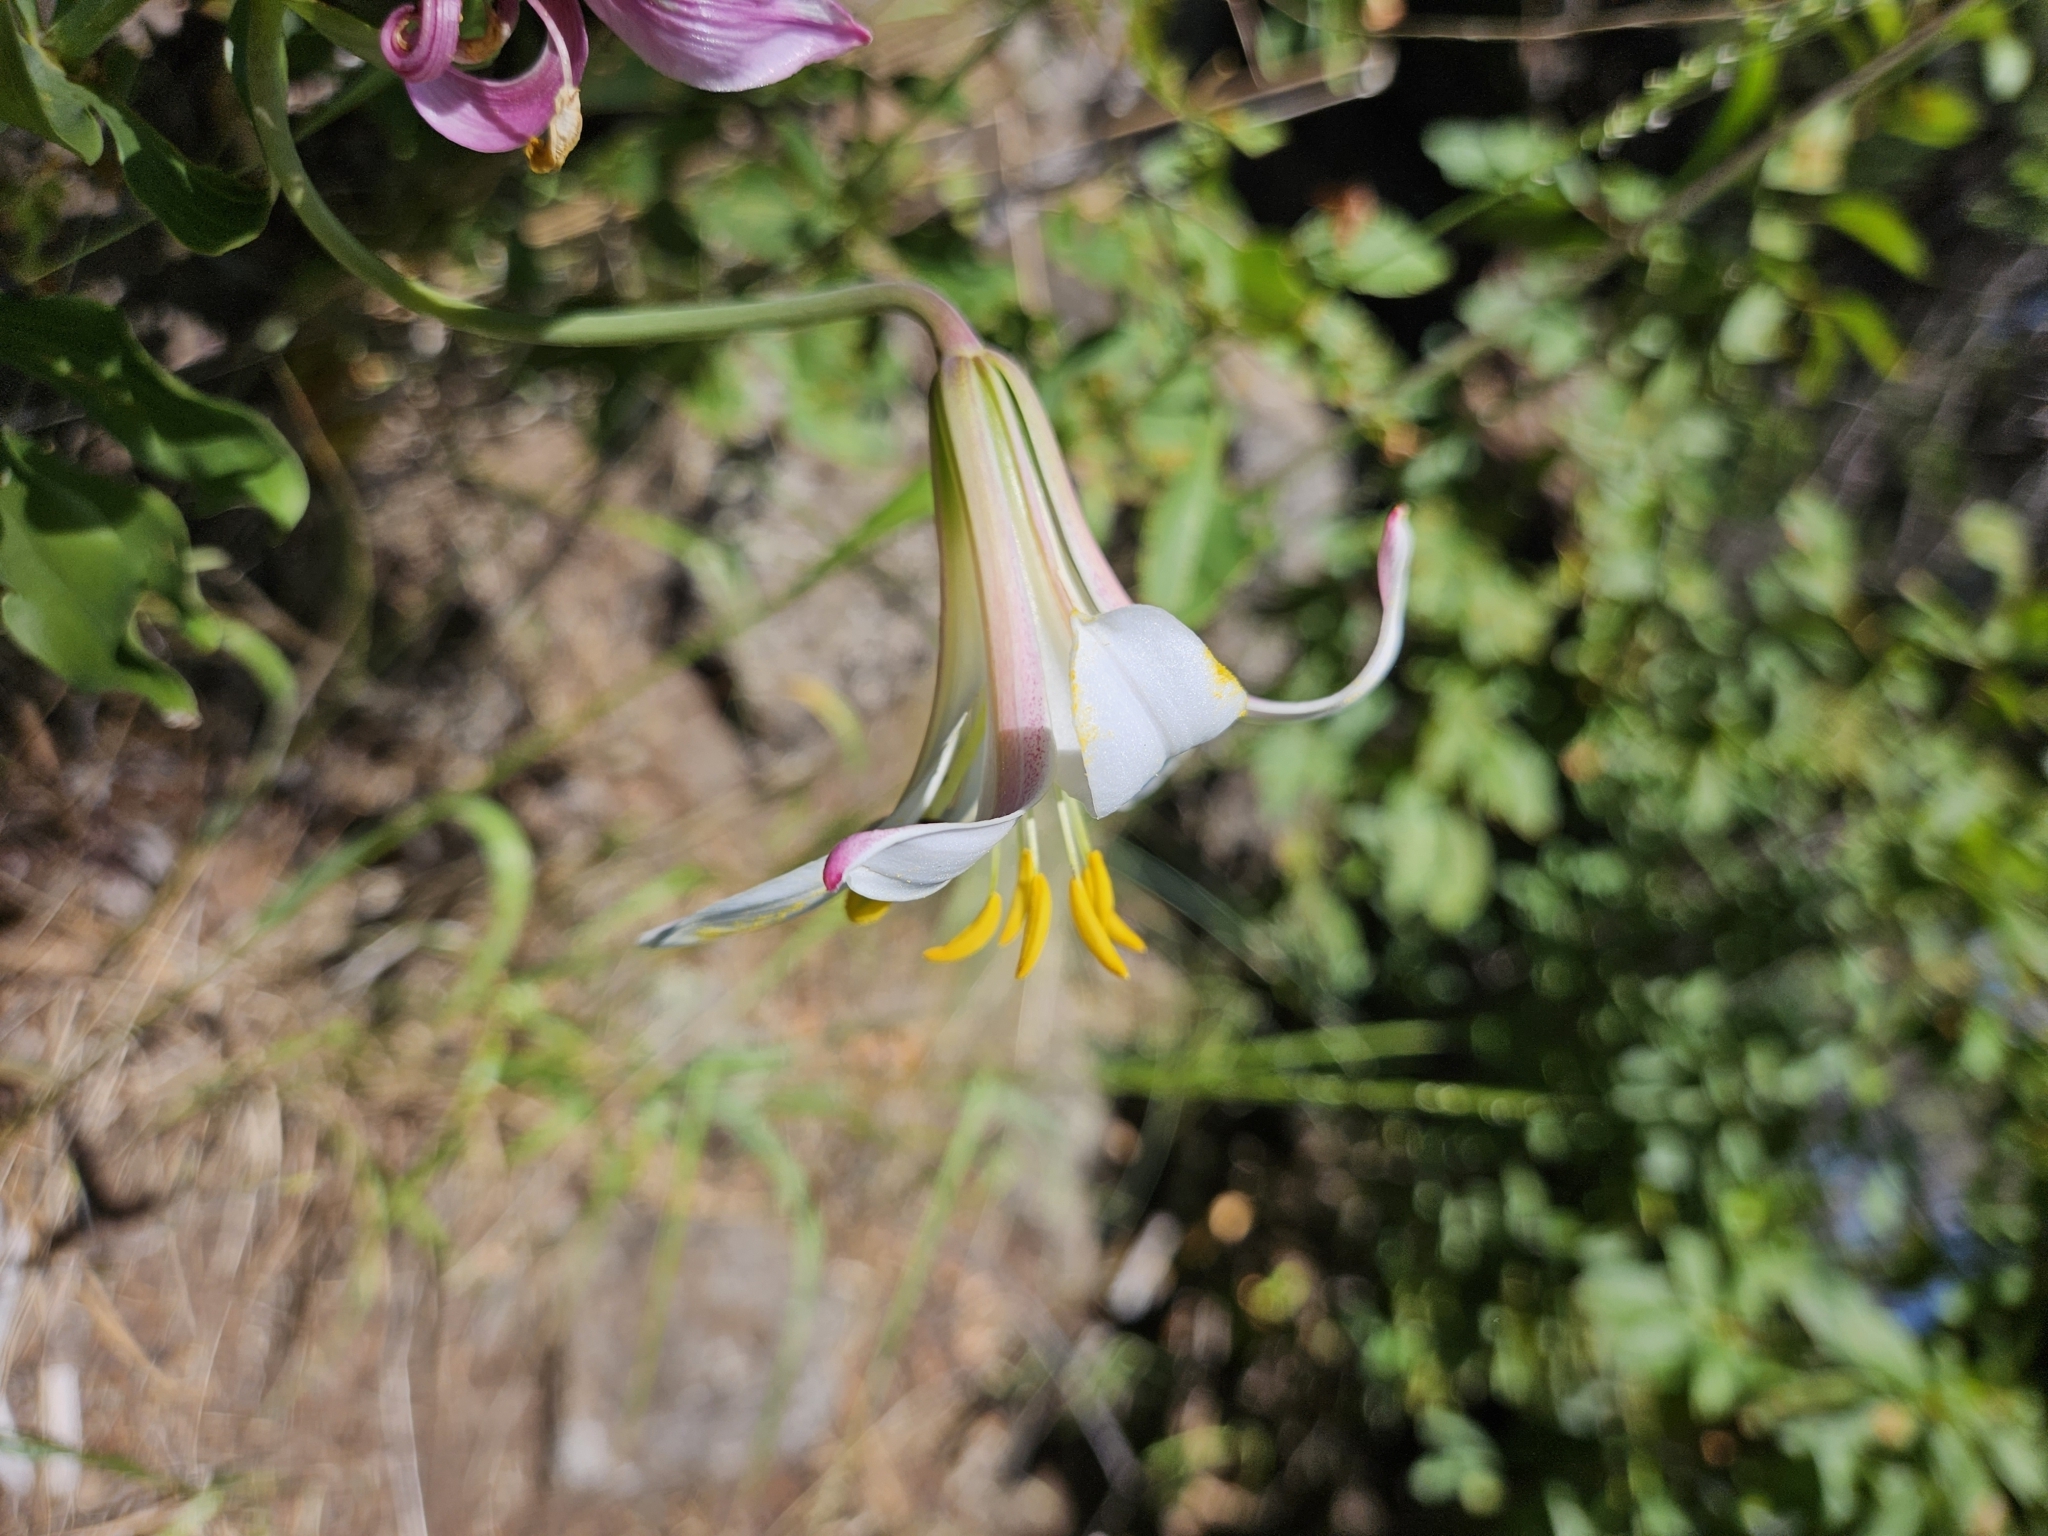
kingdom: Plantae
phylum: Tracheophyta
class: Liliopsida
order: Liliales
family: Liliaceae
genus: Lilium
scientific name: Lilium washingtonianum
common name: Washington lily
